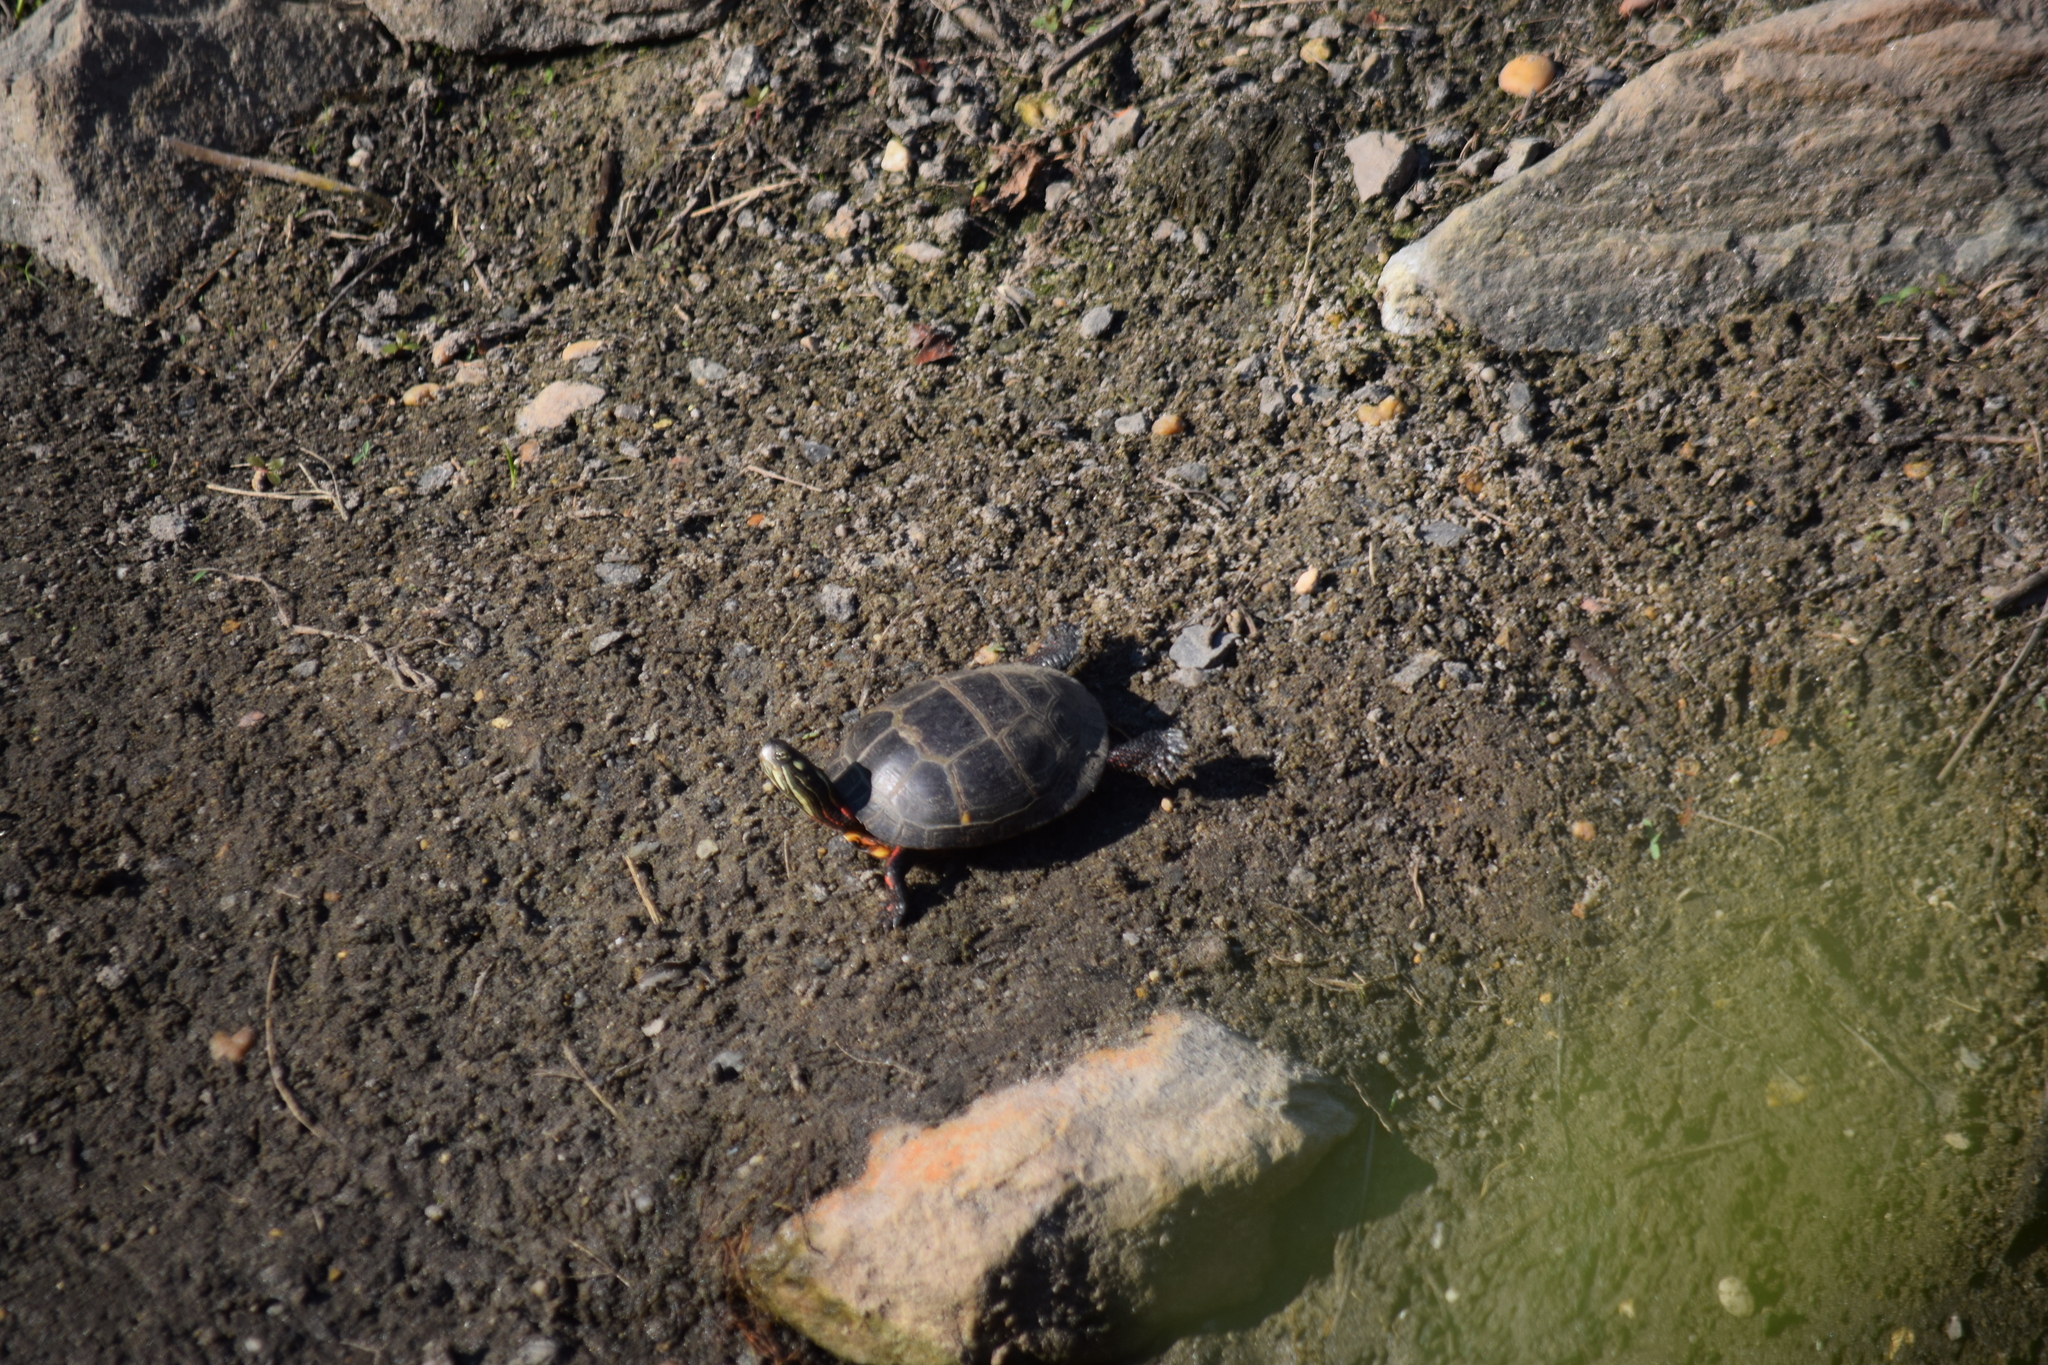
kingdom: Animalia
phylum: Chordata
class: Testudines
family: Emydidae
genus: Chrysemys
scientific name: Chrysemys picta
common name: Painted turtle
